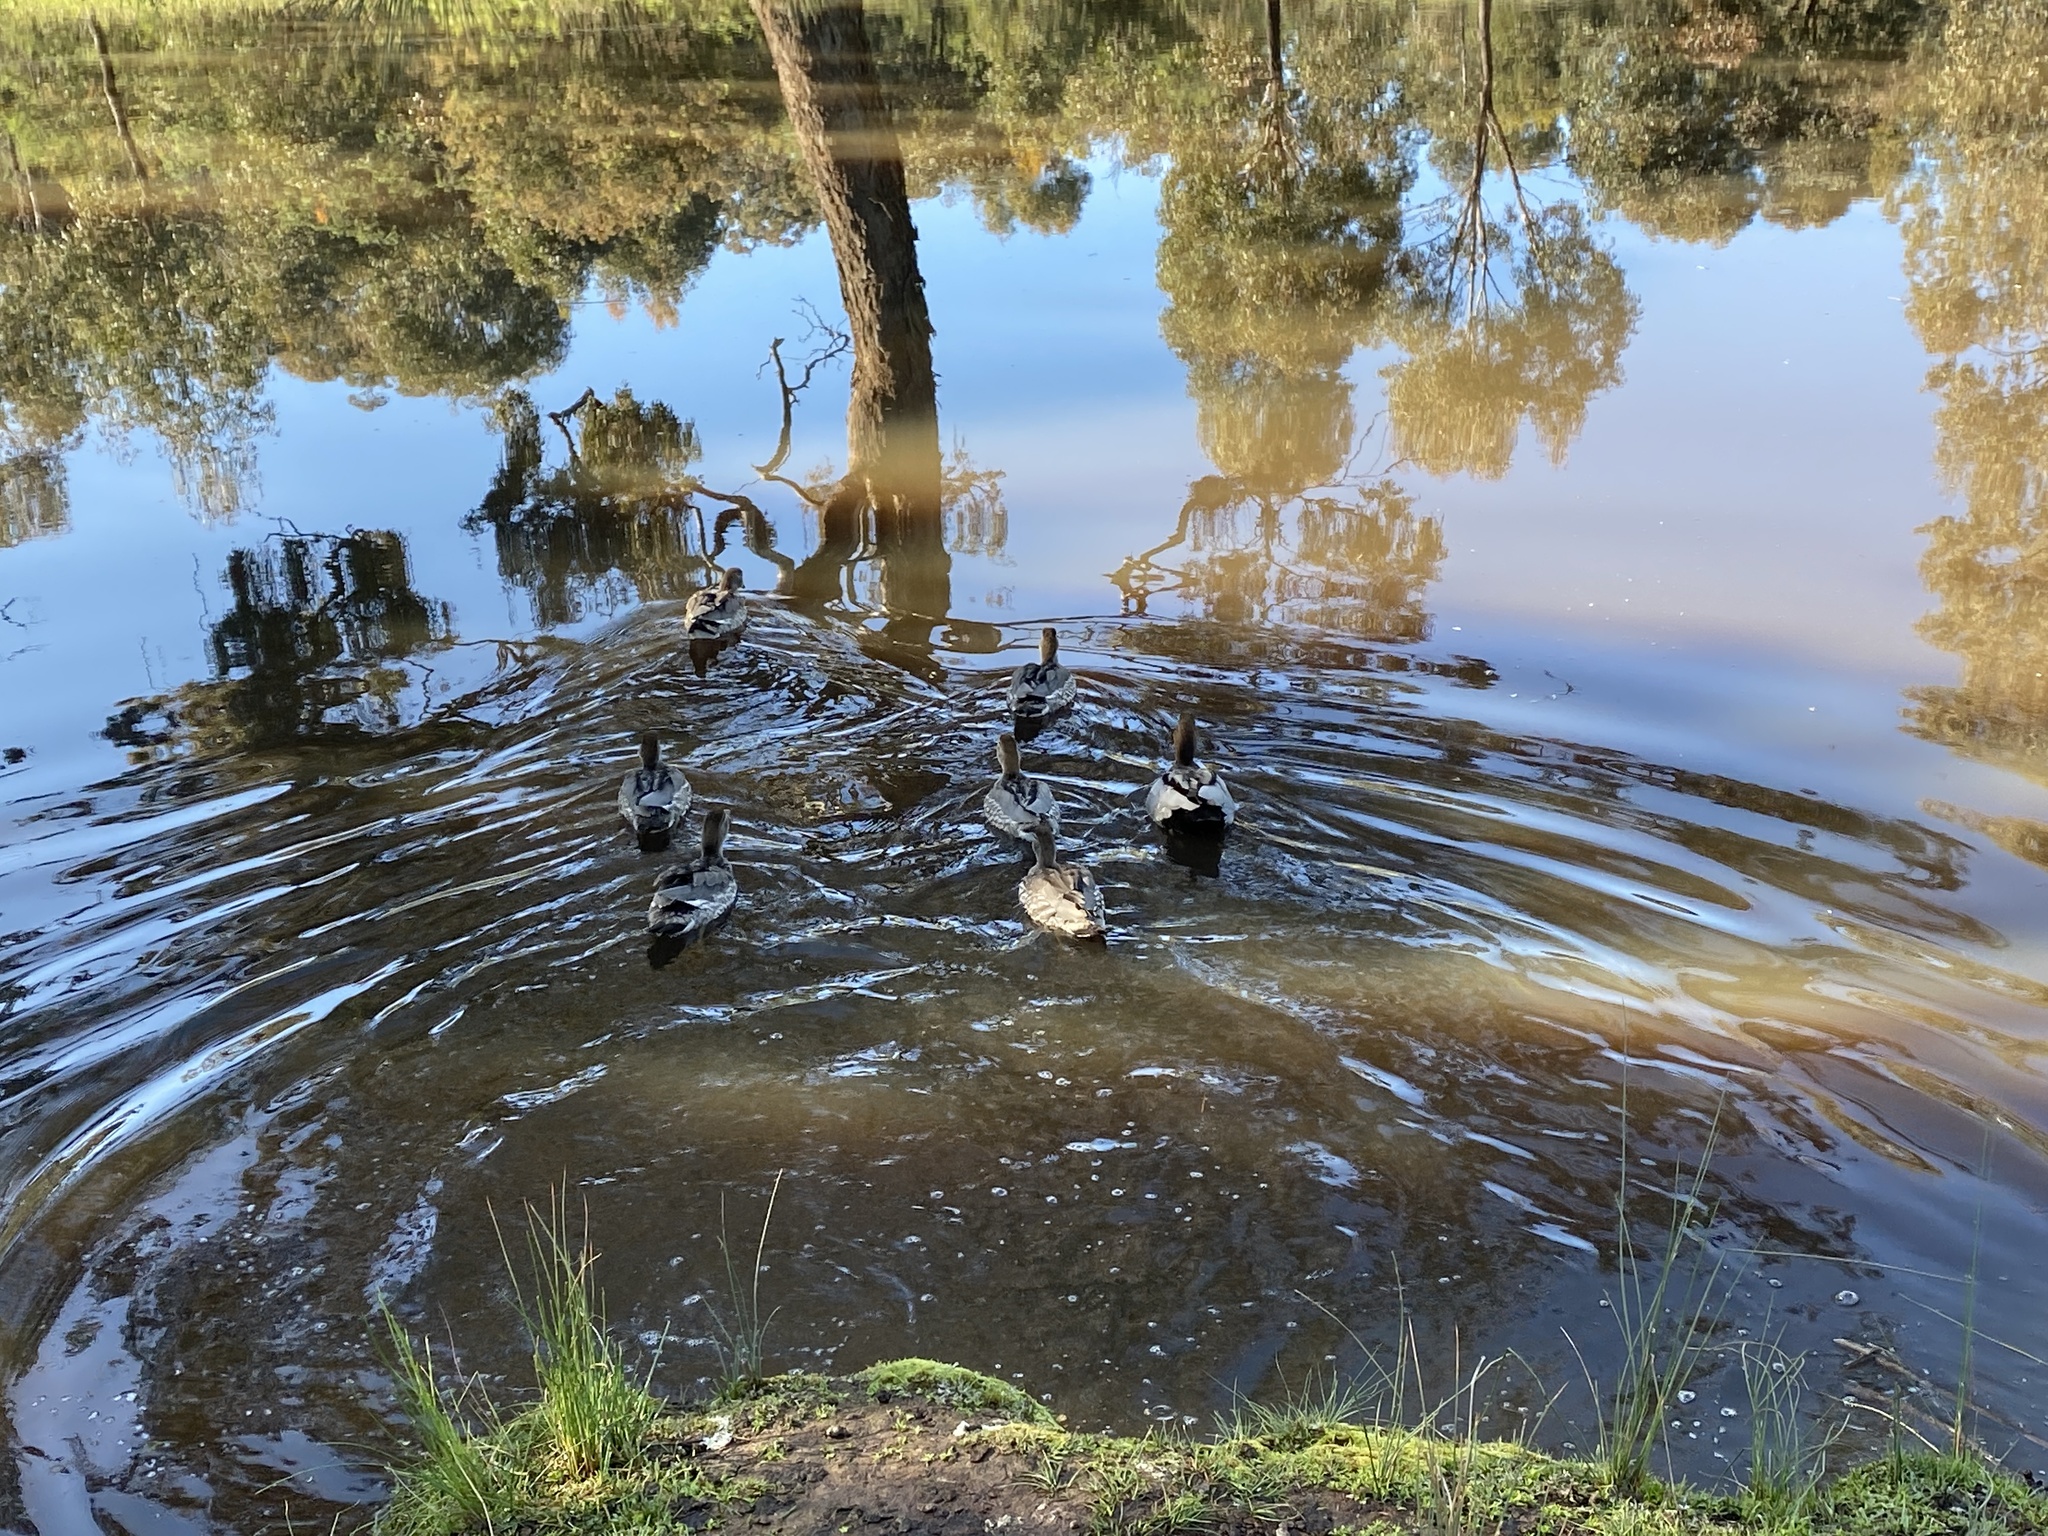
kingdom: Animalia
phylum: Chordata
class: Aves
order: Anseriformes
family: Anatidae
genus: Chenonetta
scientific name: Chenonetta jubata
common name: Maned duck
